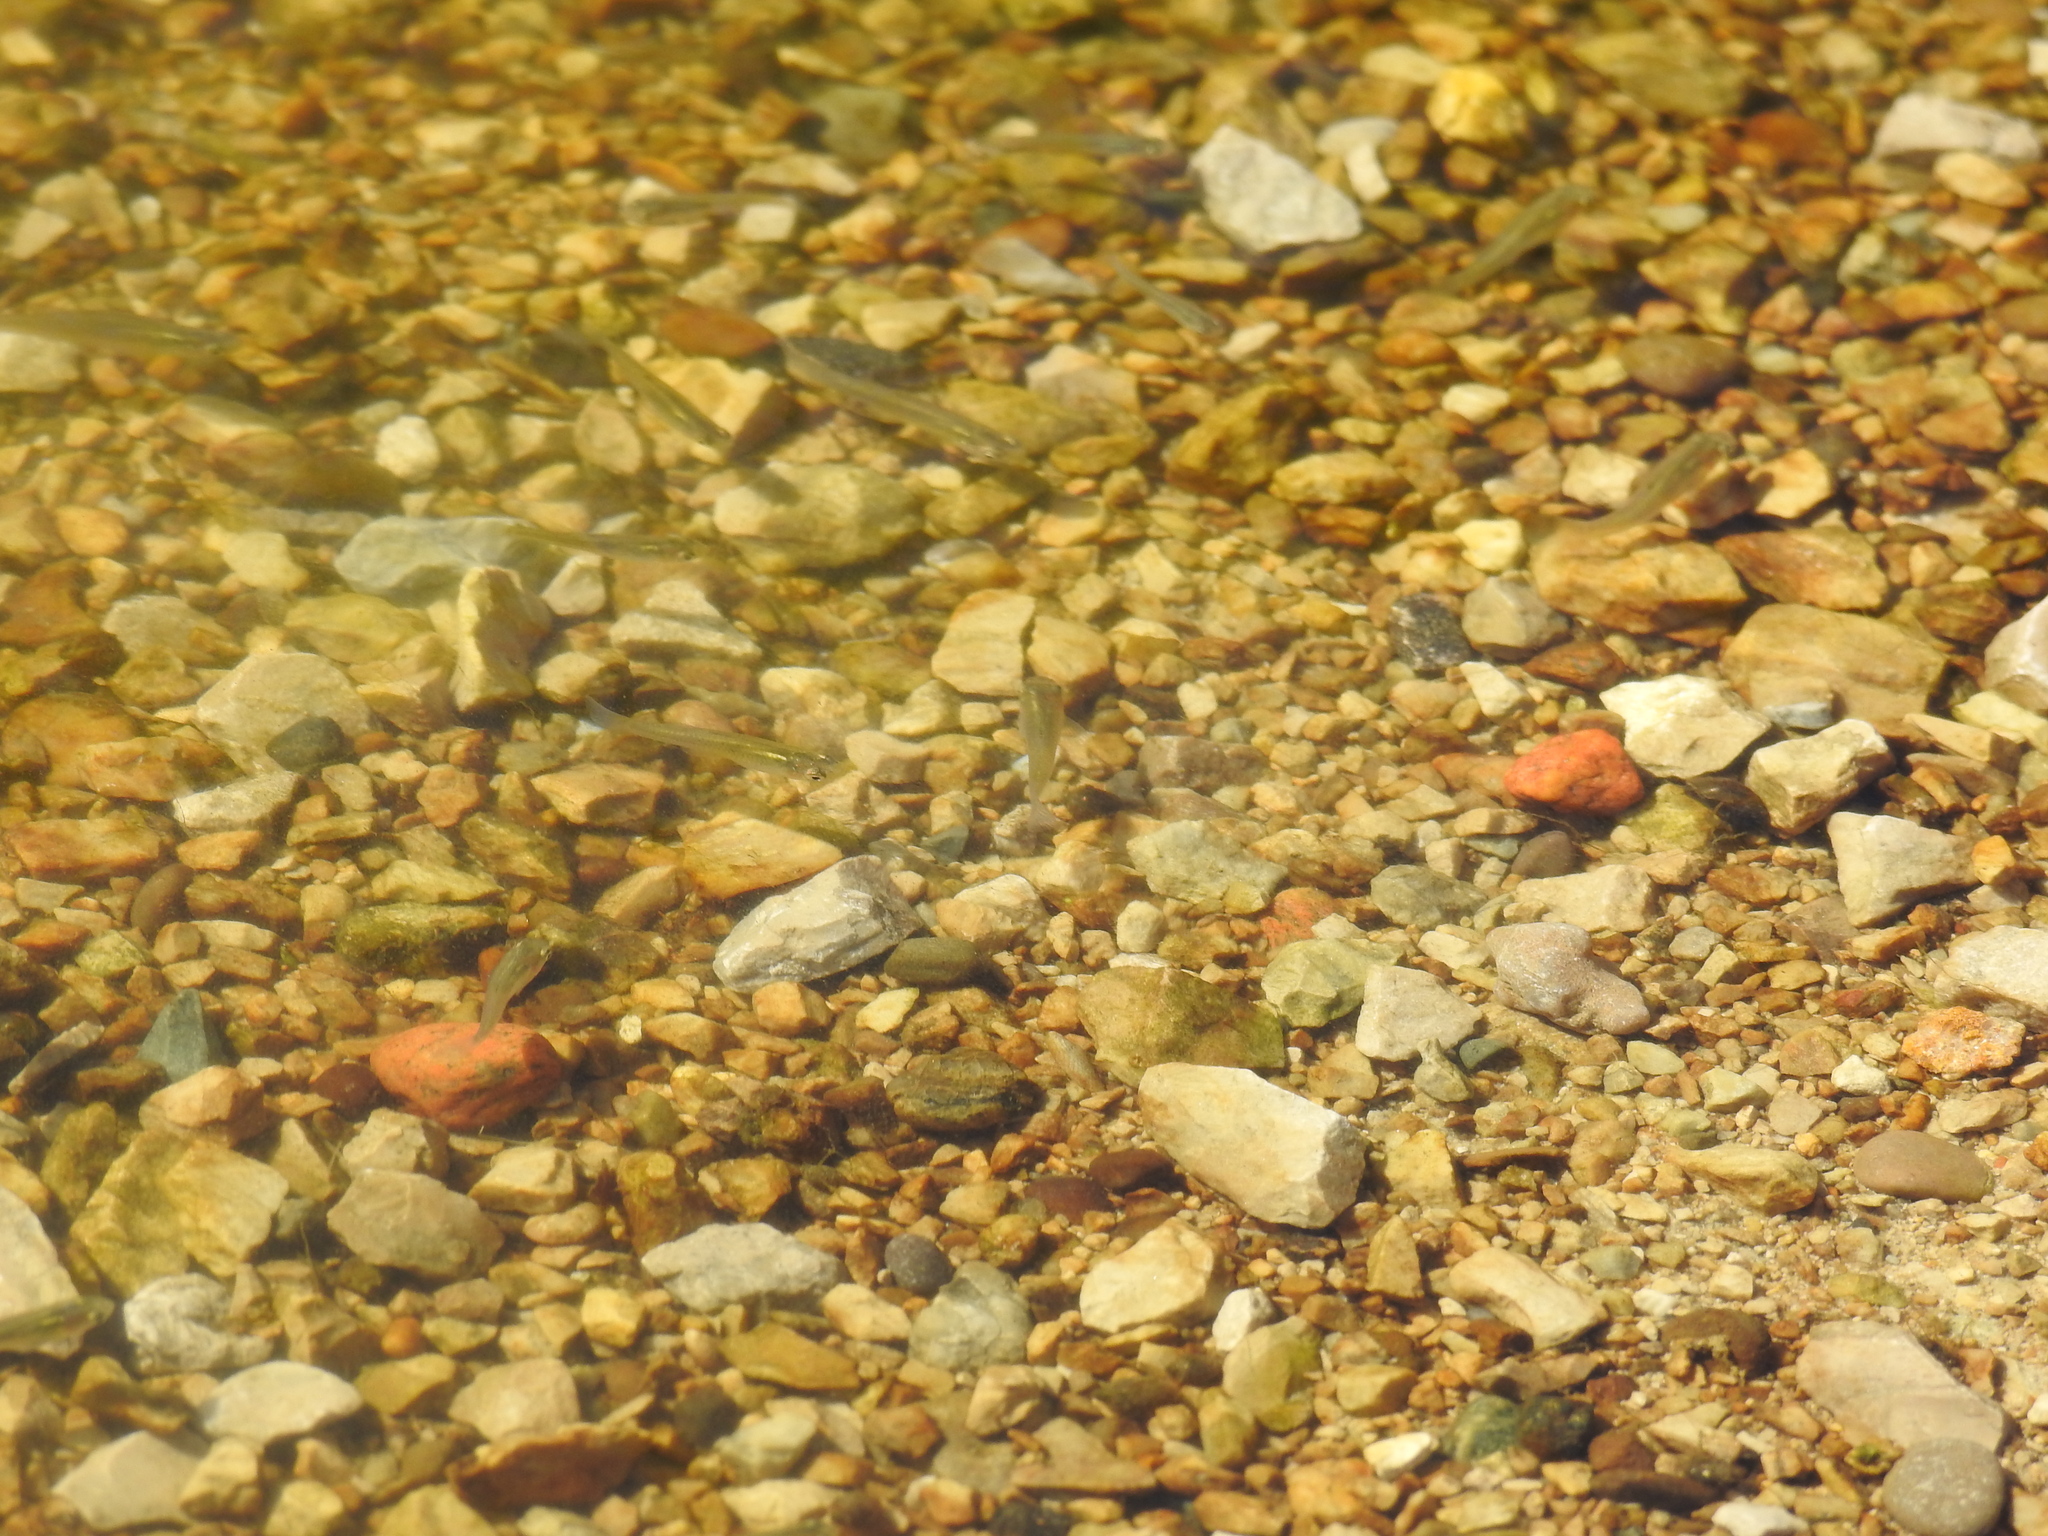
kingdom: Animalia
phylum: Chordata
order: Cyprinodontiformes
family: Poeciliidae
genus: Gambusia
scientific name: Gambusia affinis
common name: Mosquitofish
